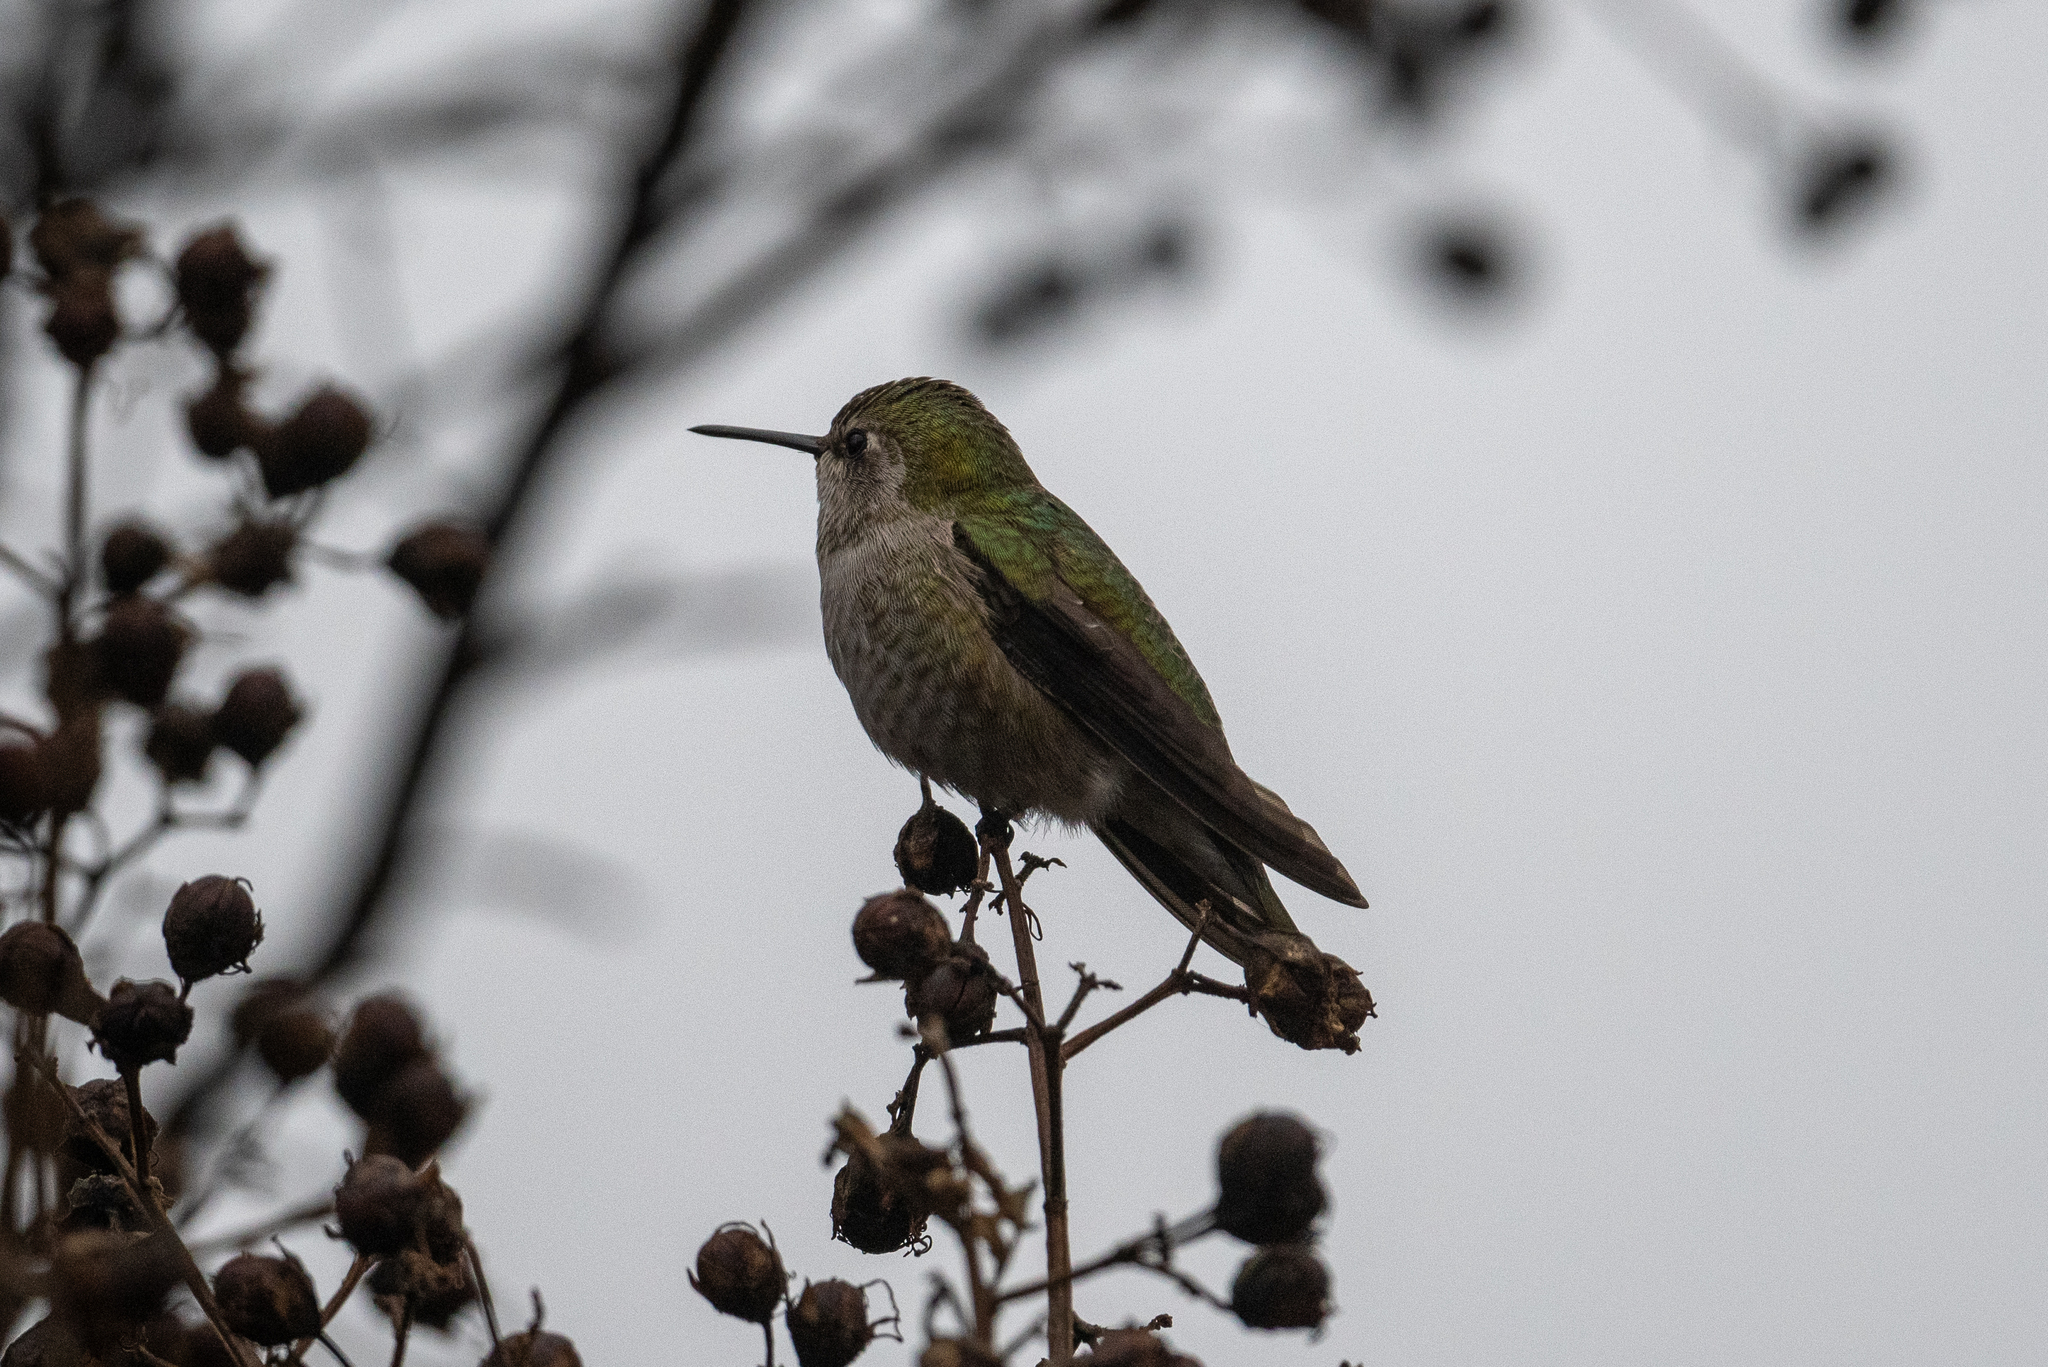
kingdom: Animalia
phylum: Chordata
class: Aves
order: Apodiformes
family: Trochilidae
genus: Calypte
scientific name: Calypte anna
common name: Anna's hummingbird
